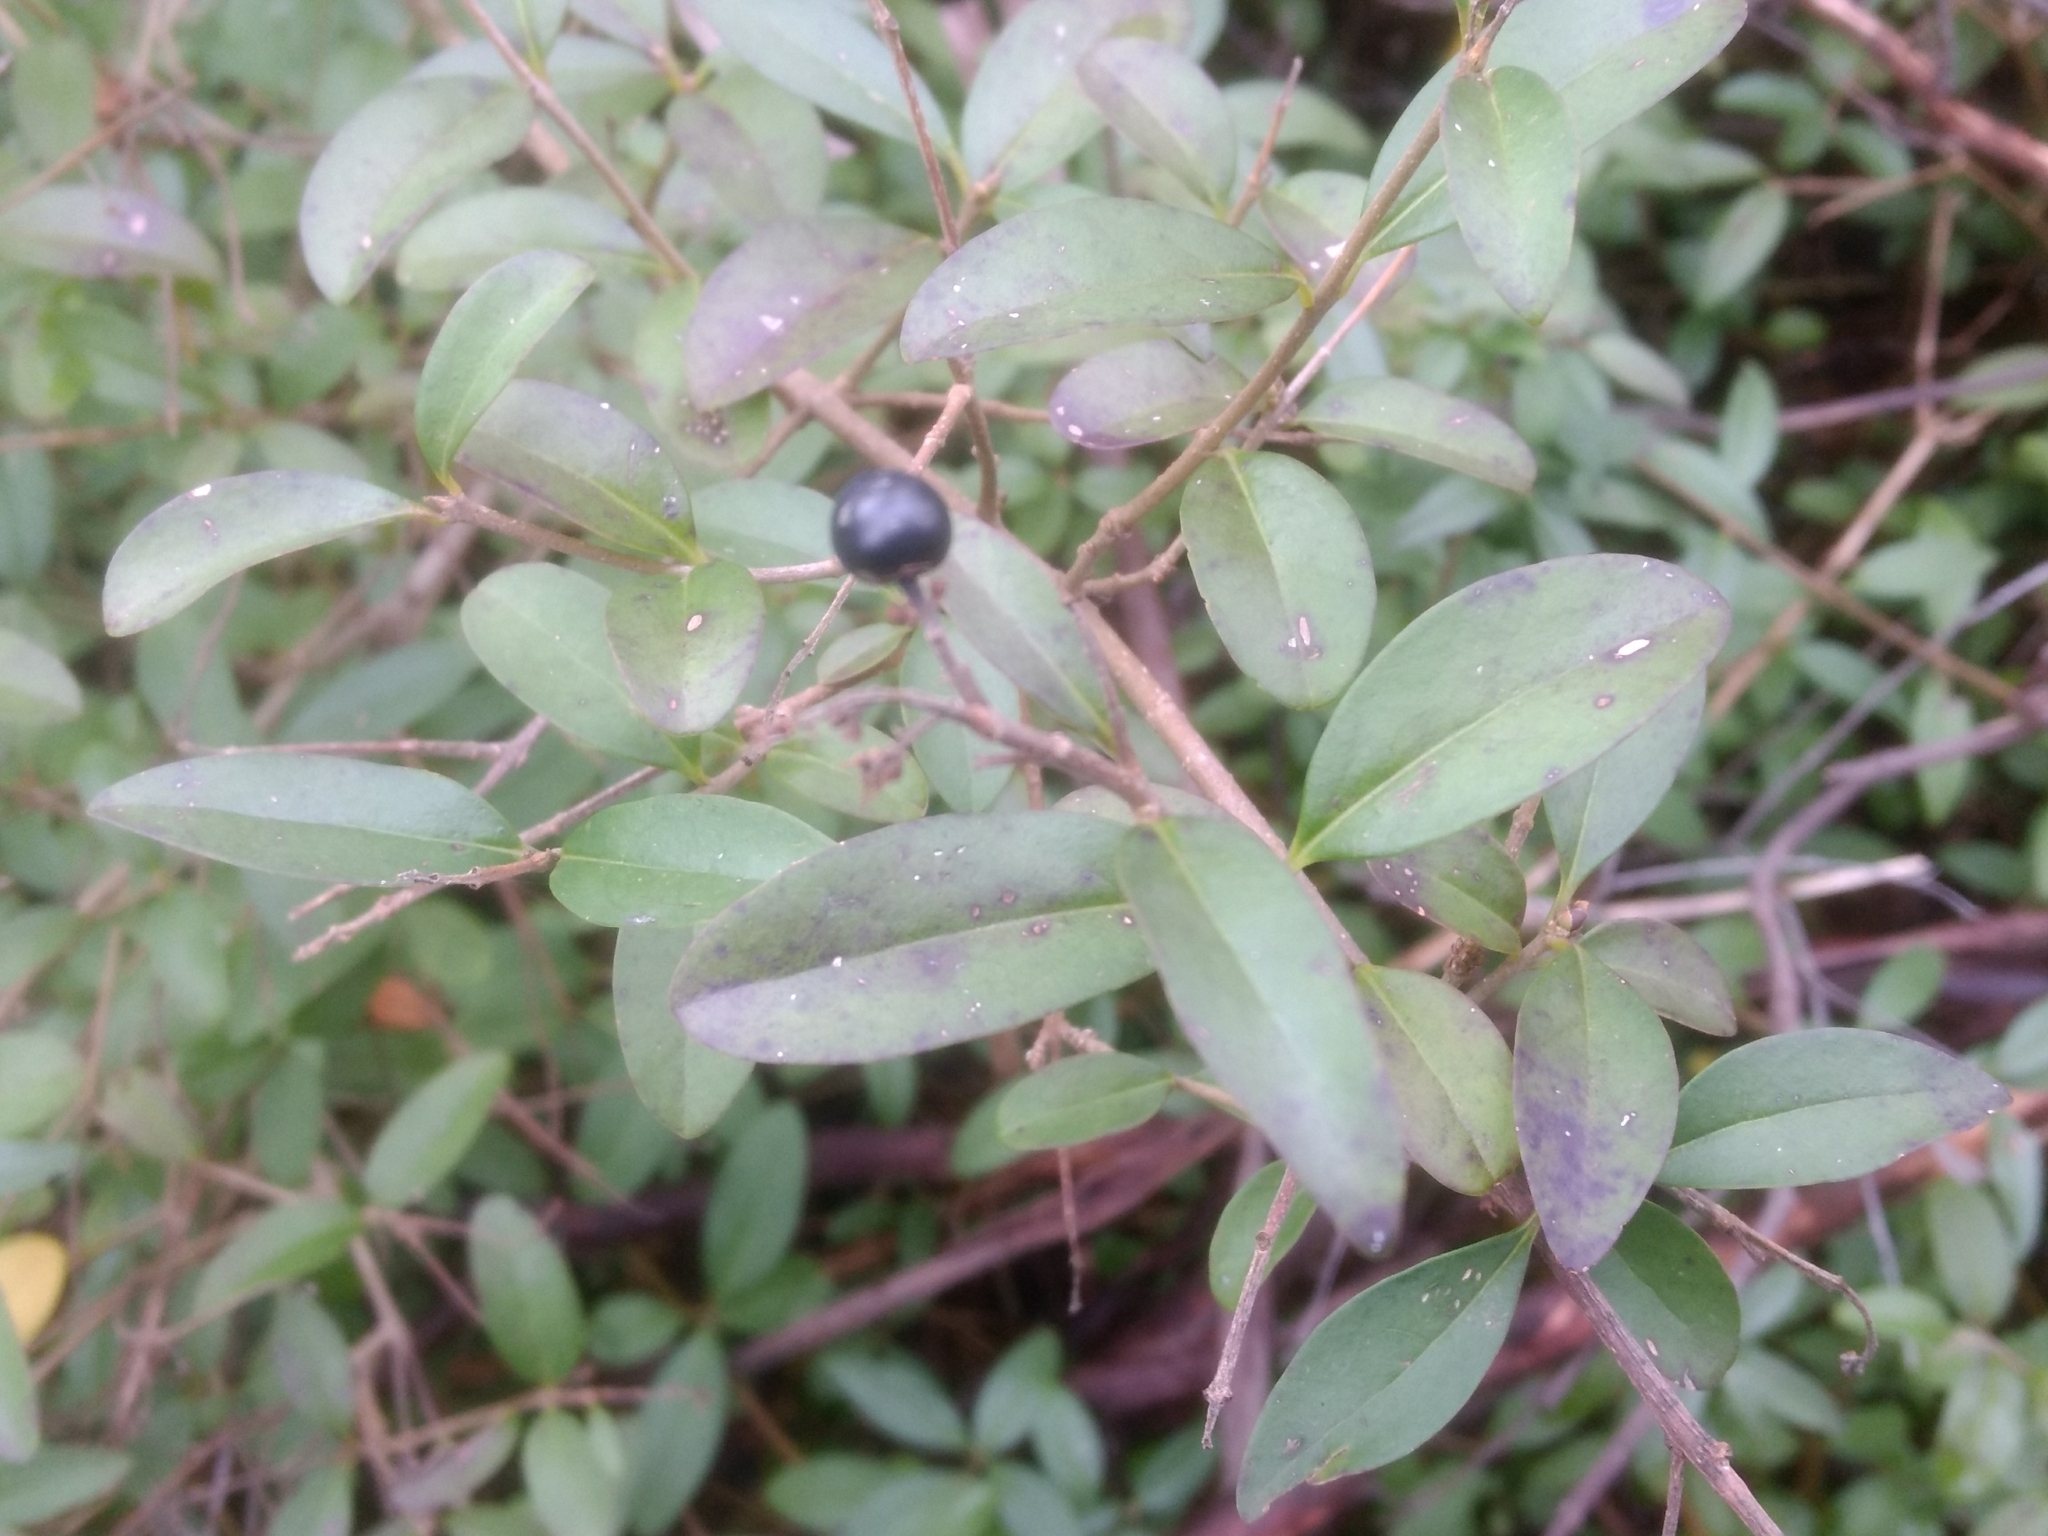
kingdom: Plantae
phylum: Tracheophyta
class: Magnoliopsida
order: Lamiales
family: Oleaceae
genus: Ligustrum
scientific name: Ligustrum vulgare
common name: Wild privet
